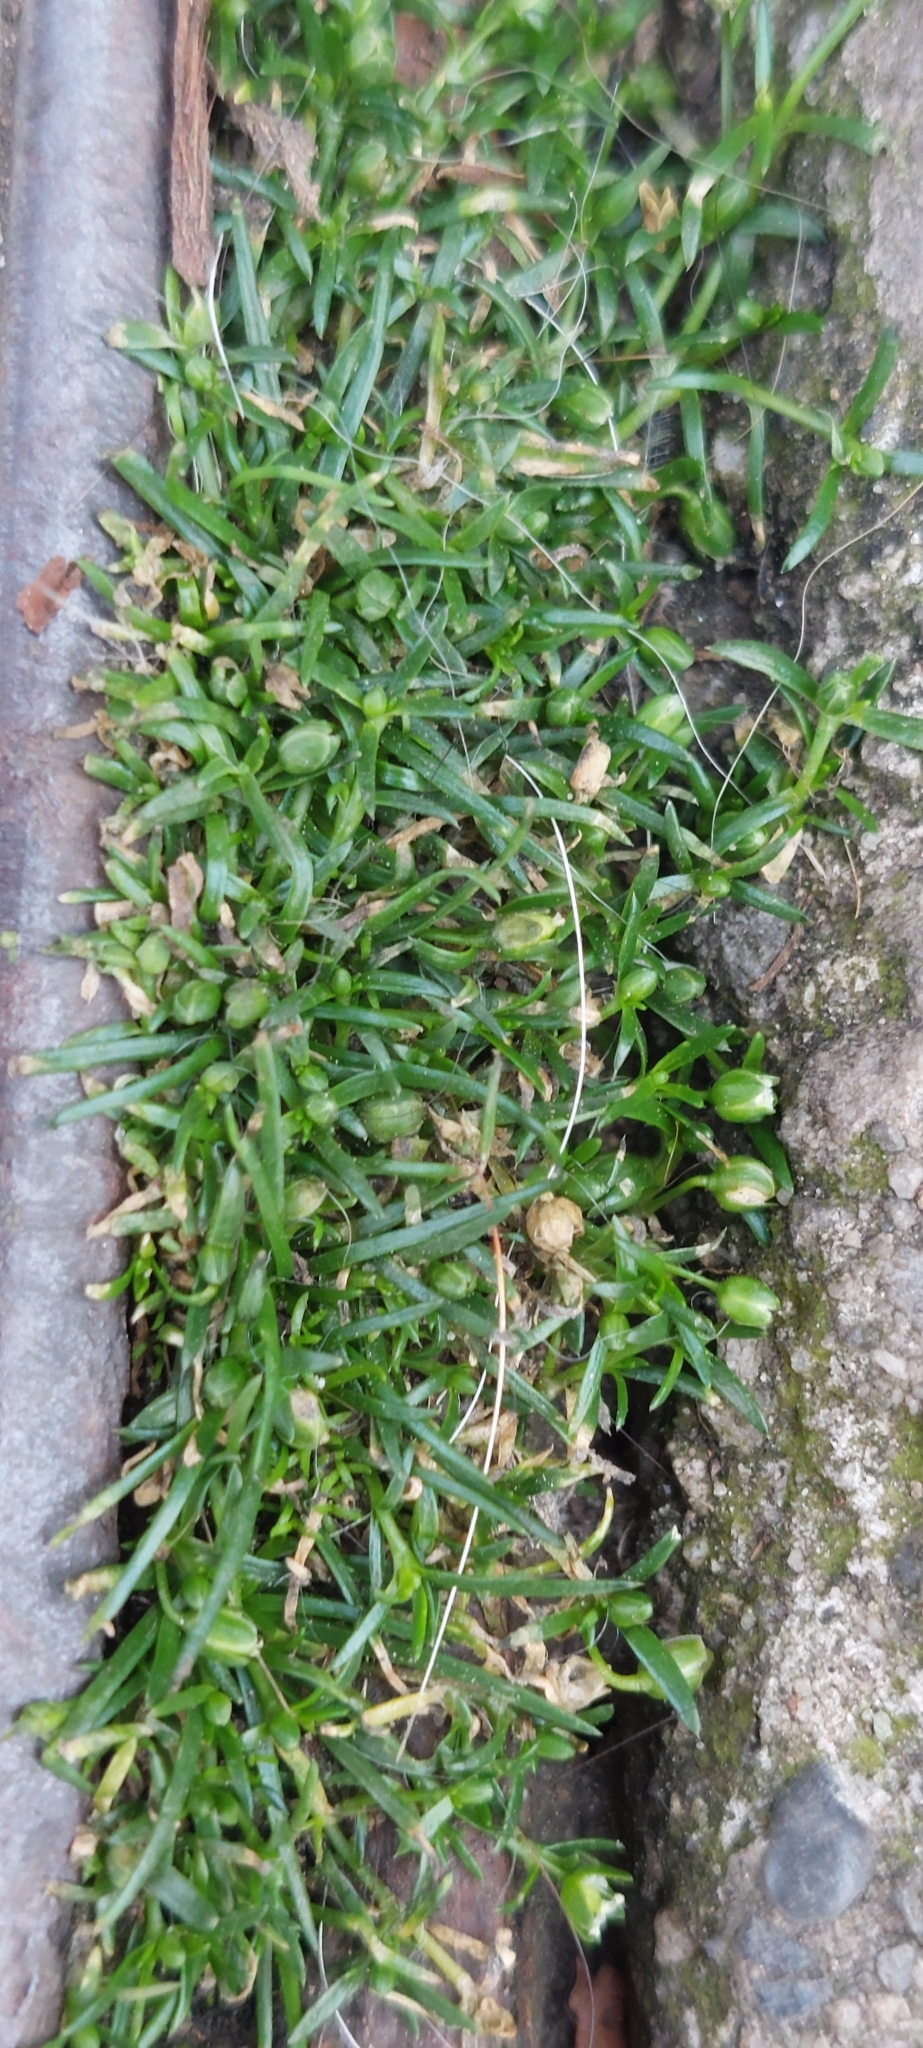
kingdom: Plantae
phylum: Tracheophyta
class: Magnoliopsida
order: Caryophyllales
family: Caryophyllaceae
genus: Sagina
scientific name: Sagina procumbens
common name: Procumbent pearlwort
